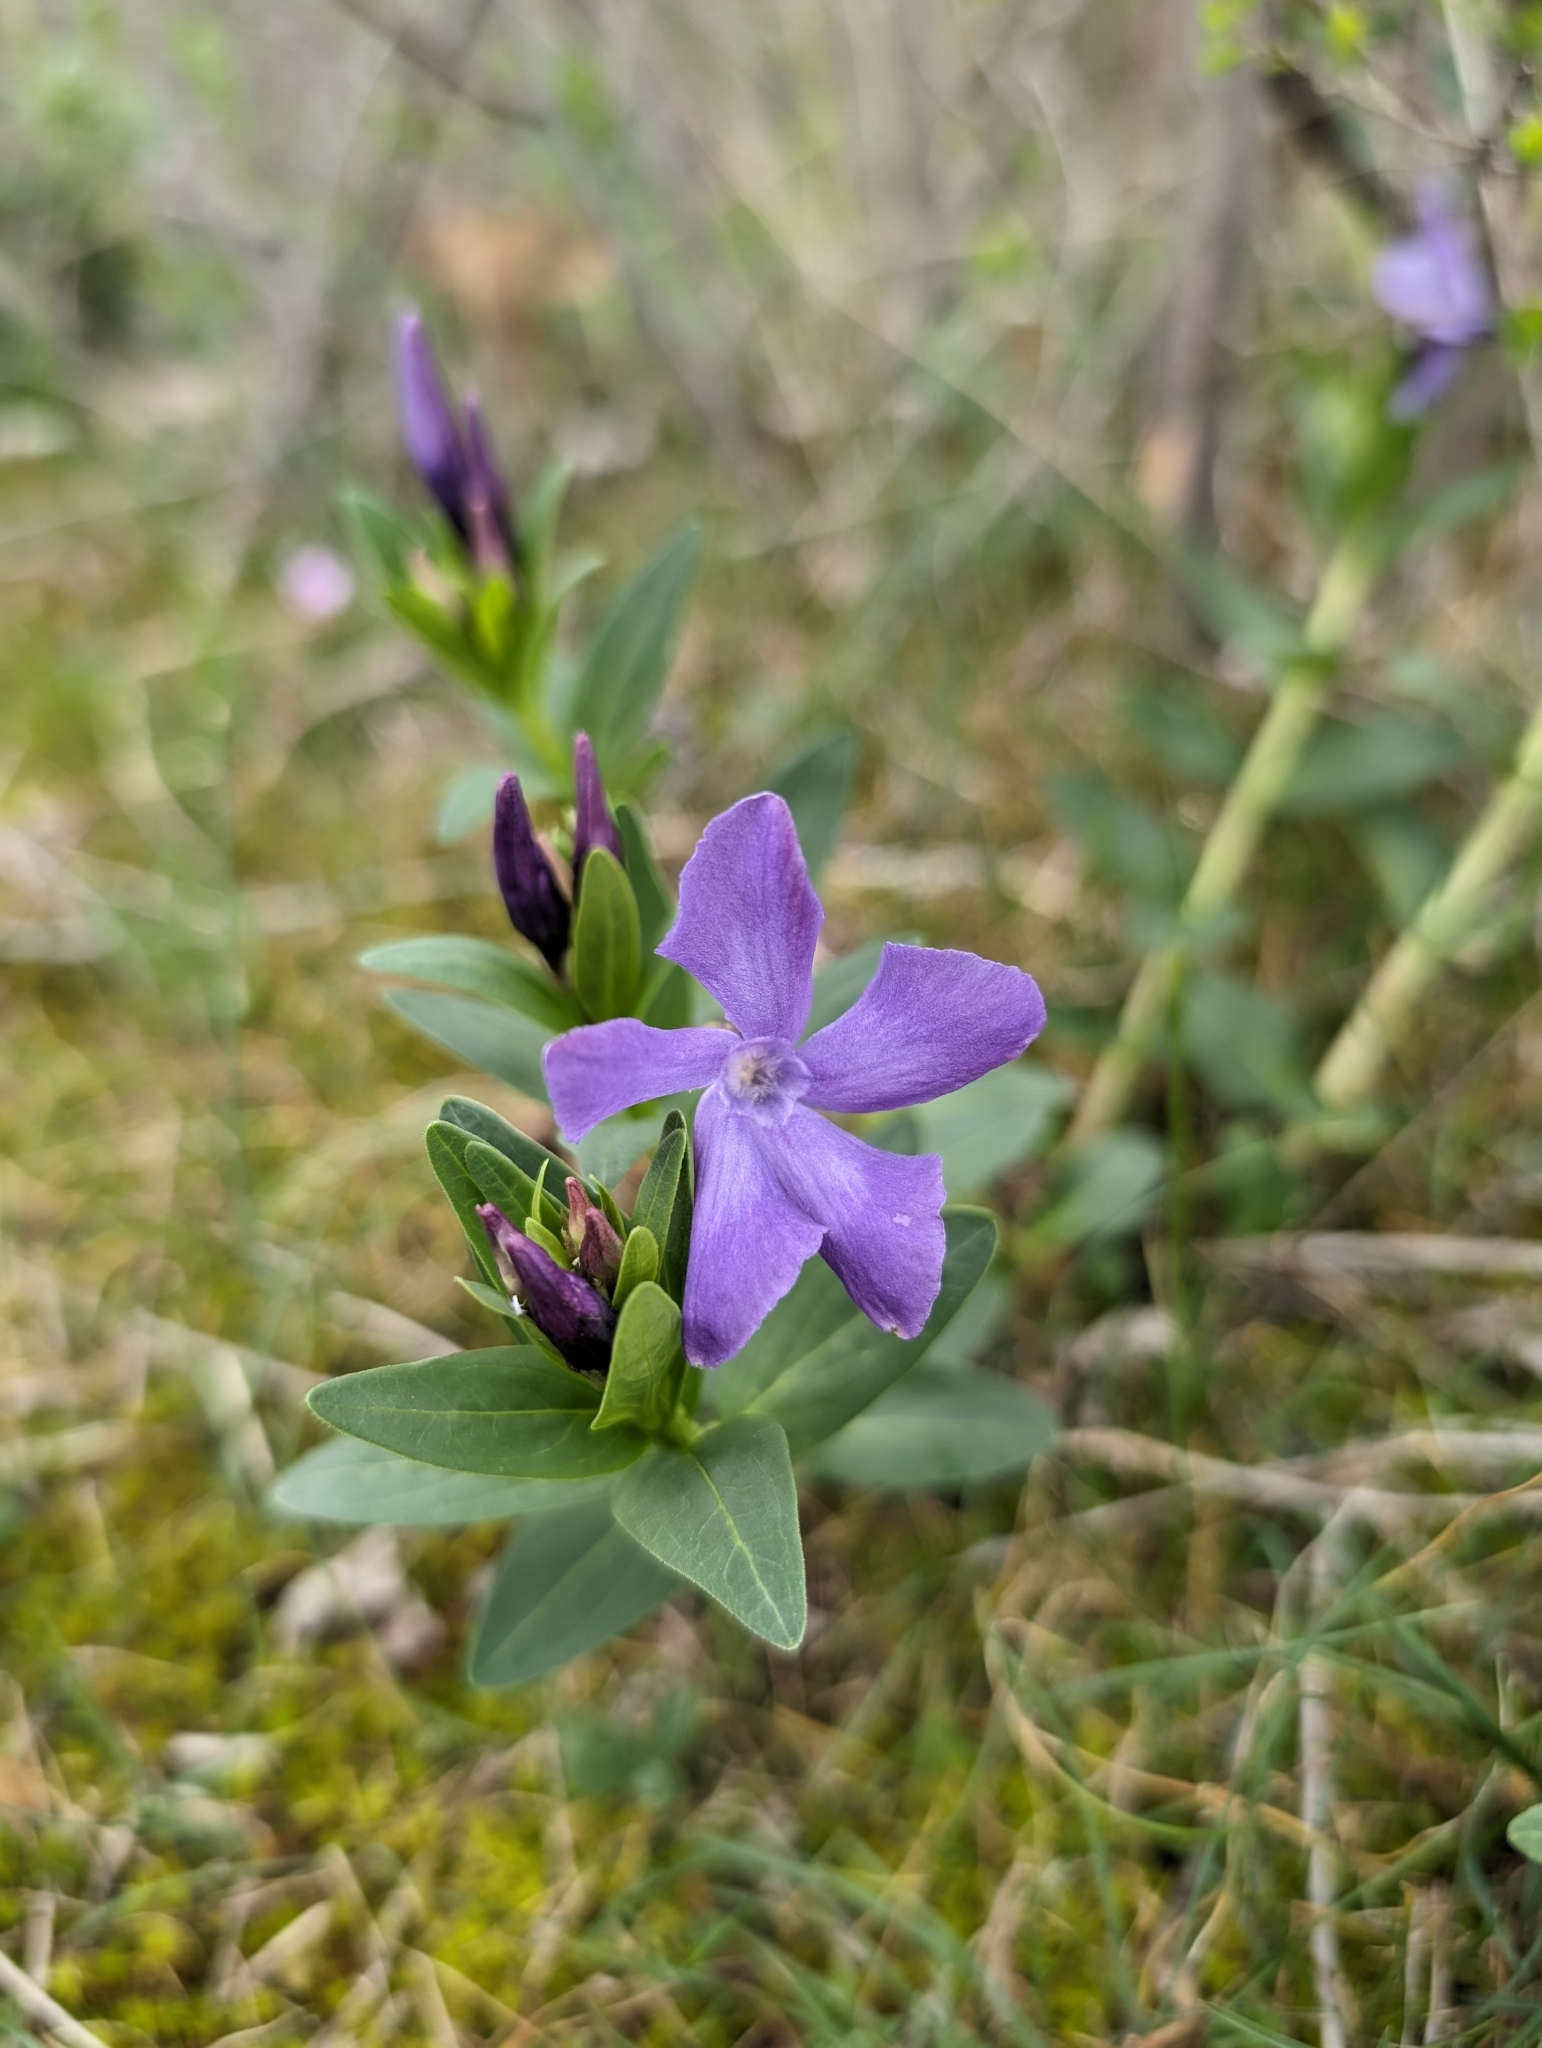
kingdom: Plantae
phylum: Tracheophyta
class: Magnoliopsida
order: Gentianales
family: Apocynaceae
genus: Vinca
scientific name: Vinca herbacea
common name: Herbaceous periwinkle
